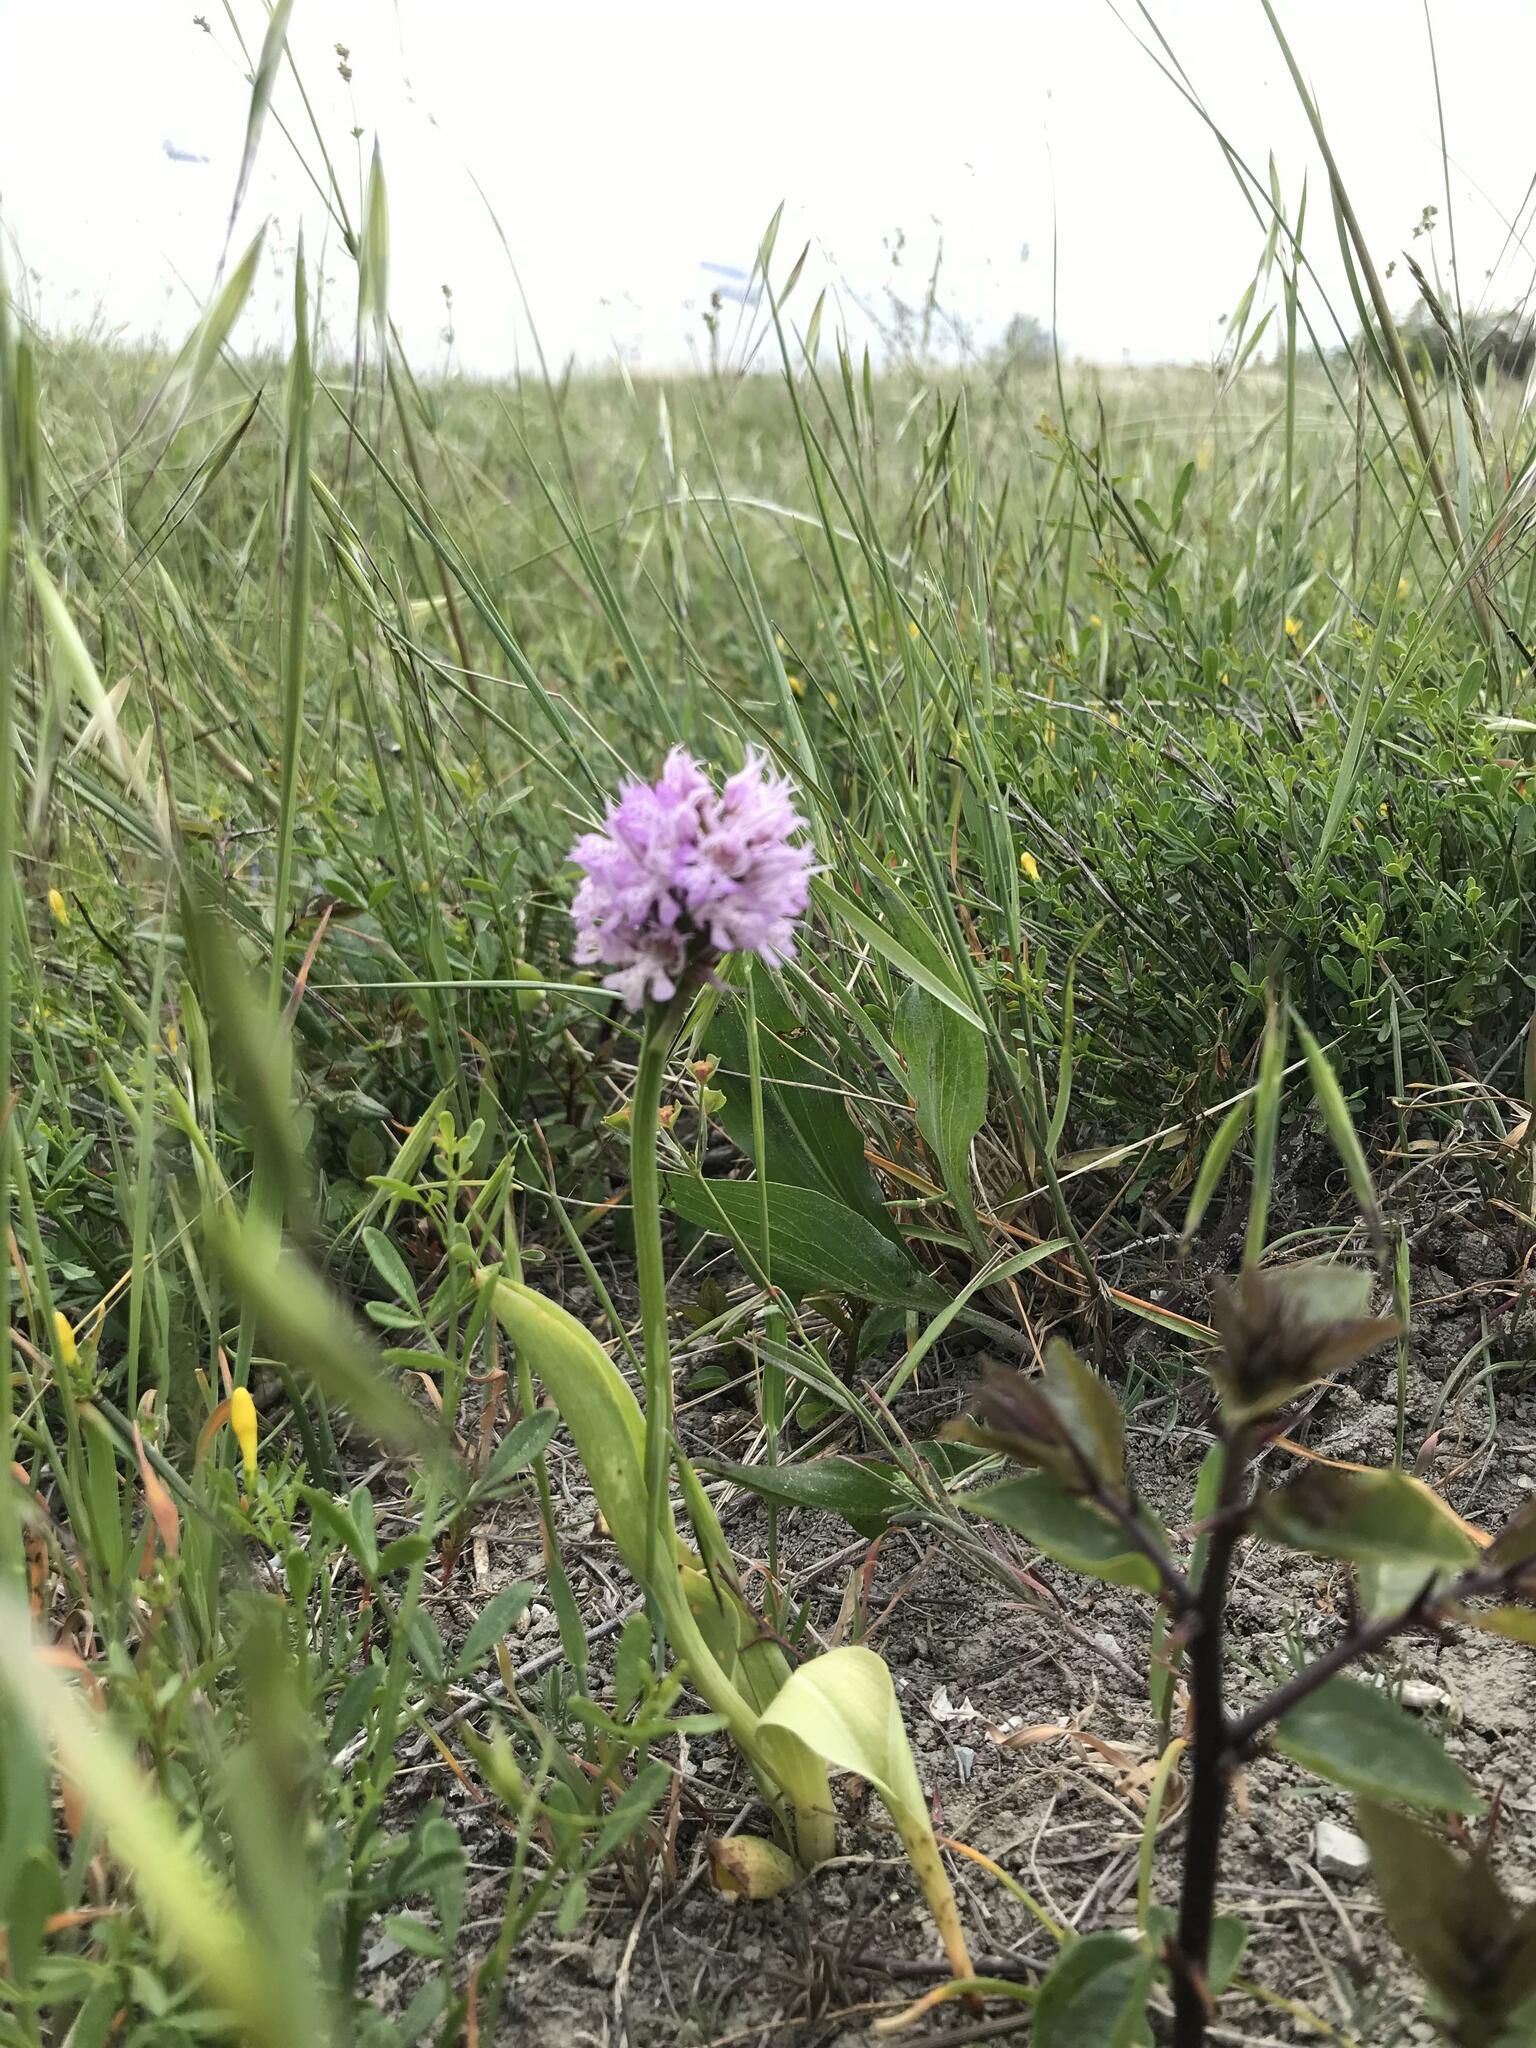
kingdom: Plantae
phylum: Tracheophyta
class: Liliopsida
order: Asparagales
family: Orchidaceae
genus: Neotinea
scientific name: Neotinea tridentata
